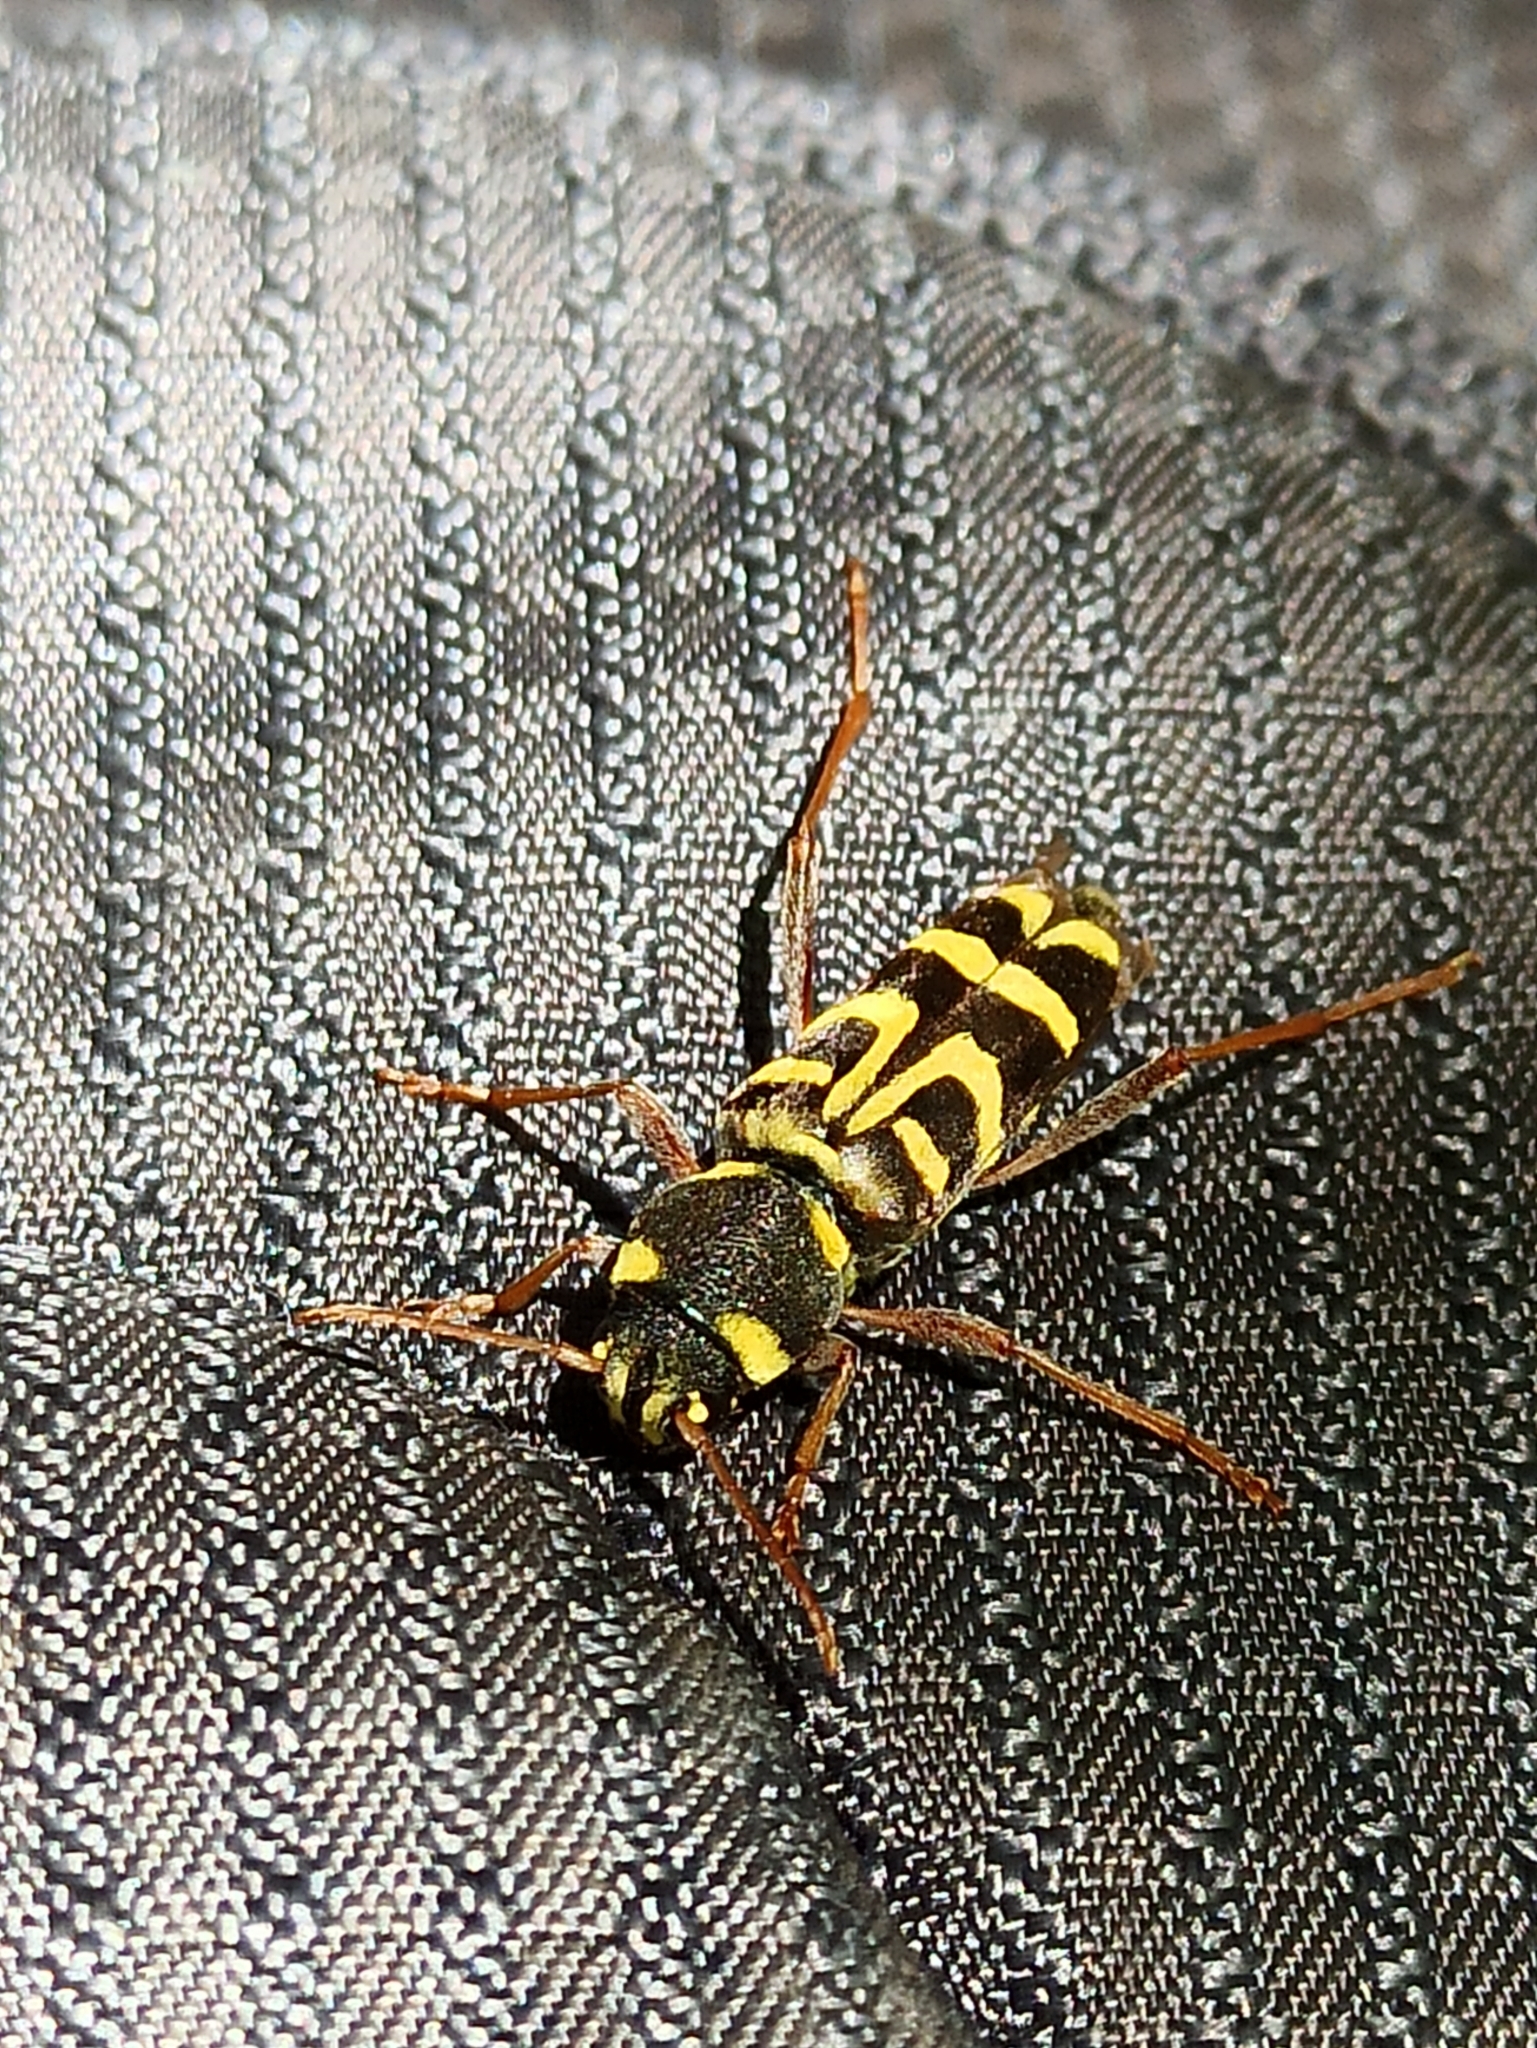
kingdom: Animalia
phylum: Arthropoda
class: Insecta
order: Coleoptera
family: Cerambycidae
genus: Xylotrechus
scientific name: Xylotrechus arvicola
